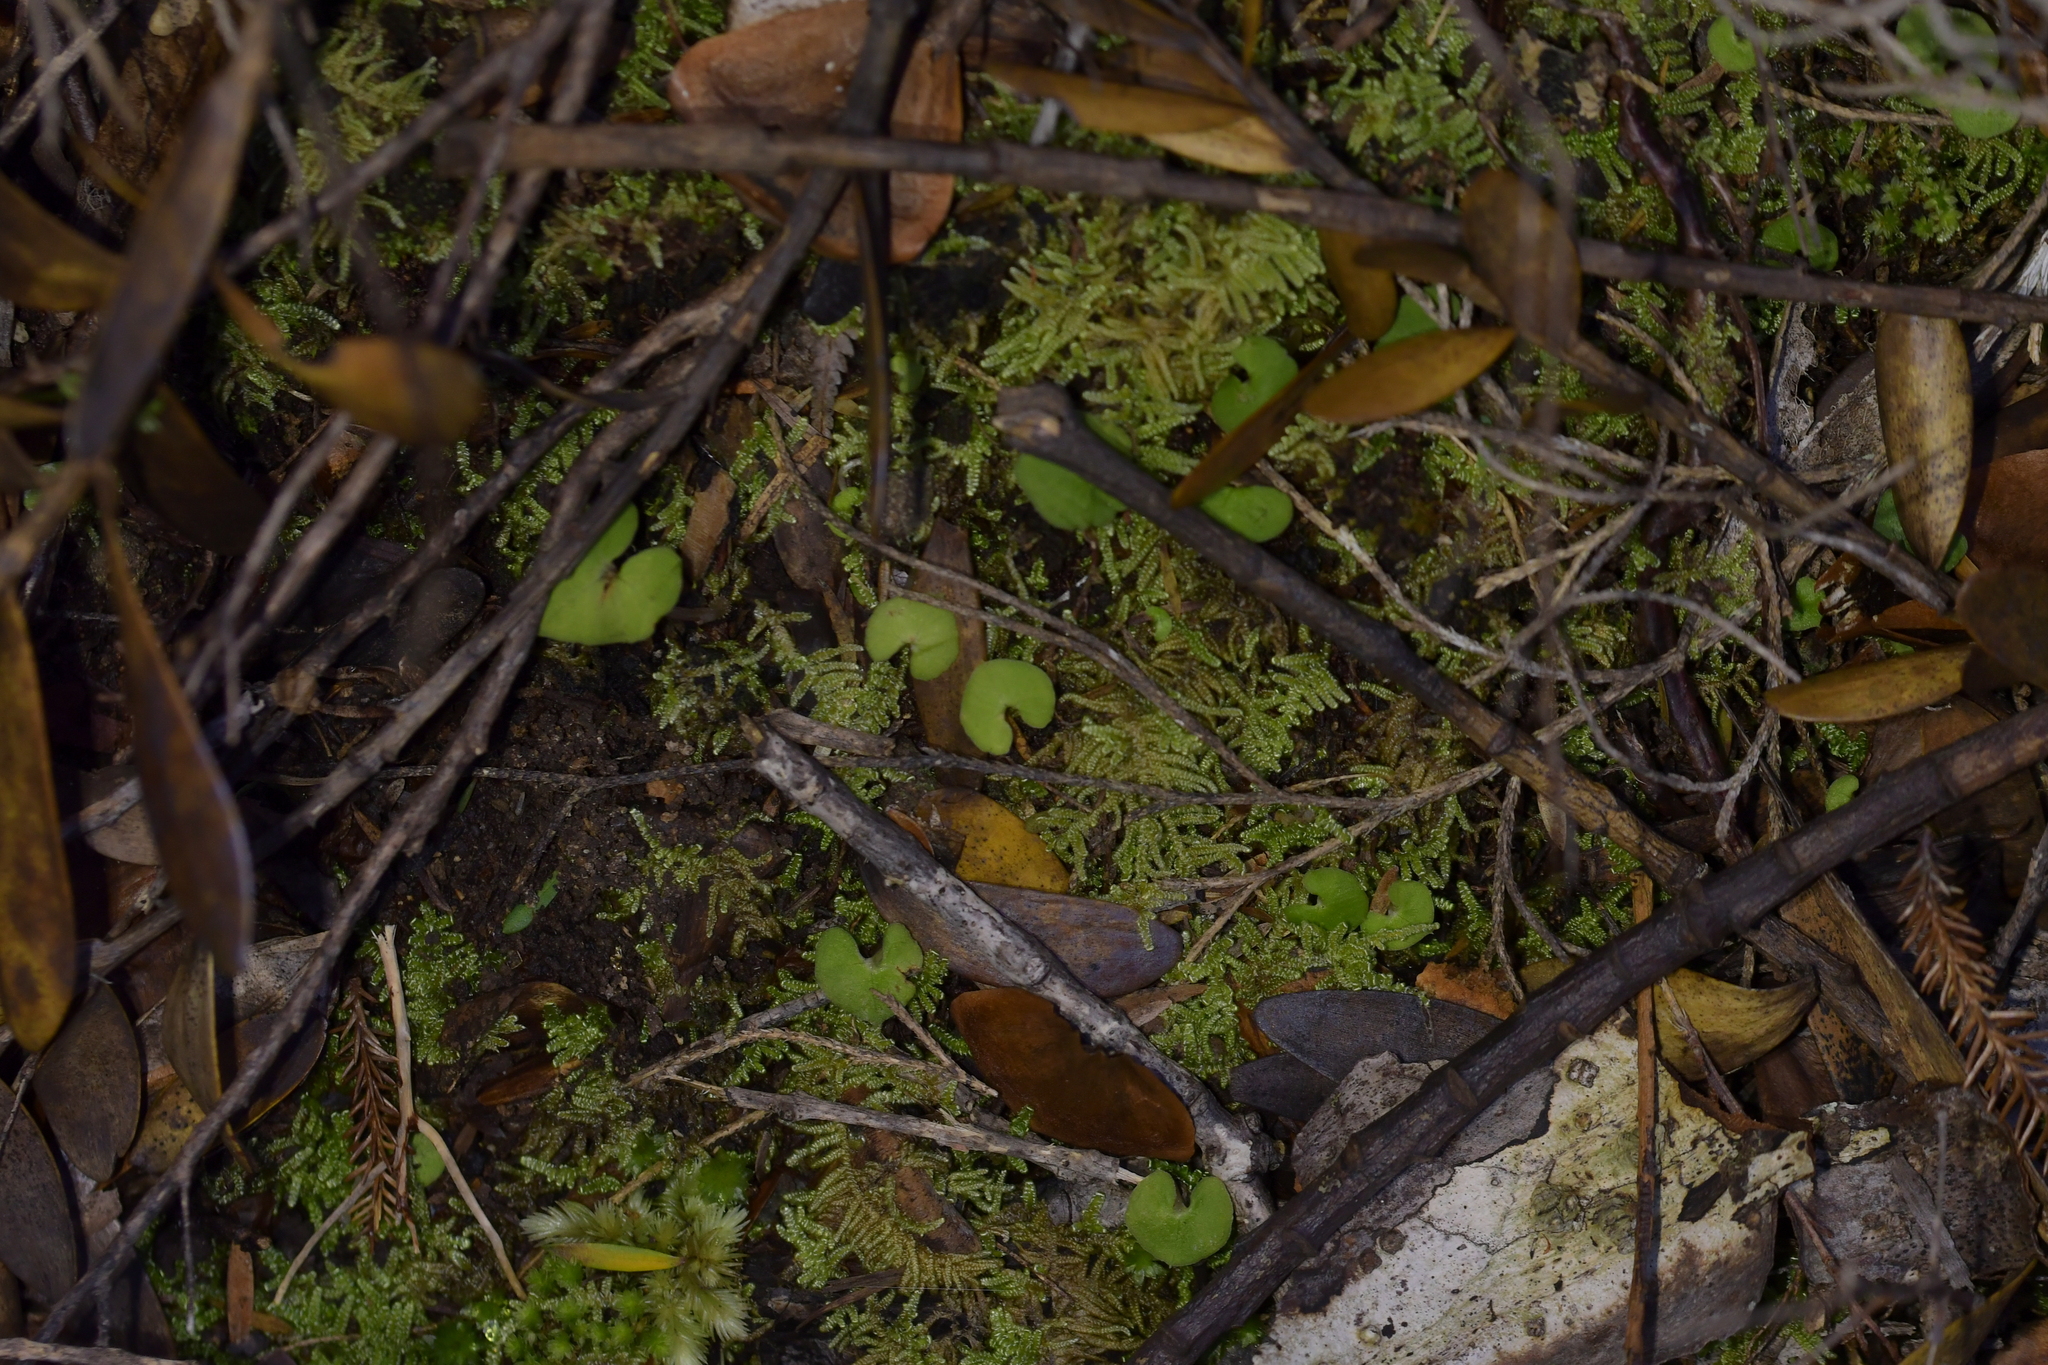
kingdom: Plantae
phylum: Tracheophyta
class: Liliopsida
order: Asparagales
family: Orchidaceae
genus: Acianthus
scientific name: Acianthus sinclairii
